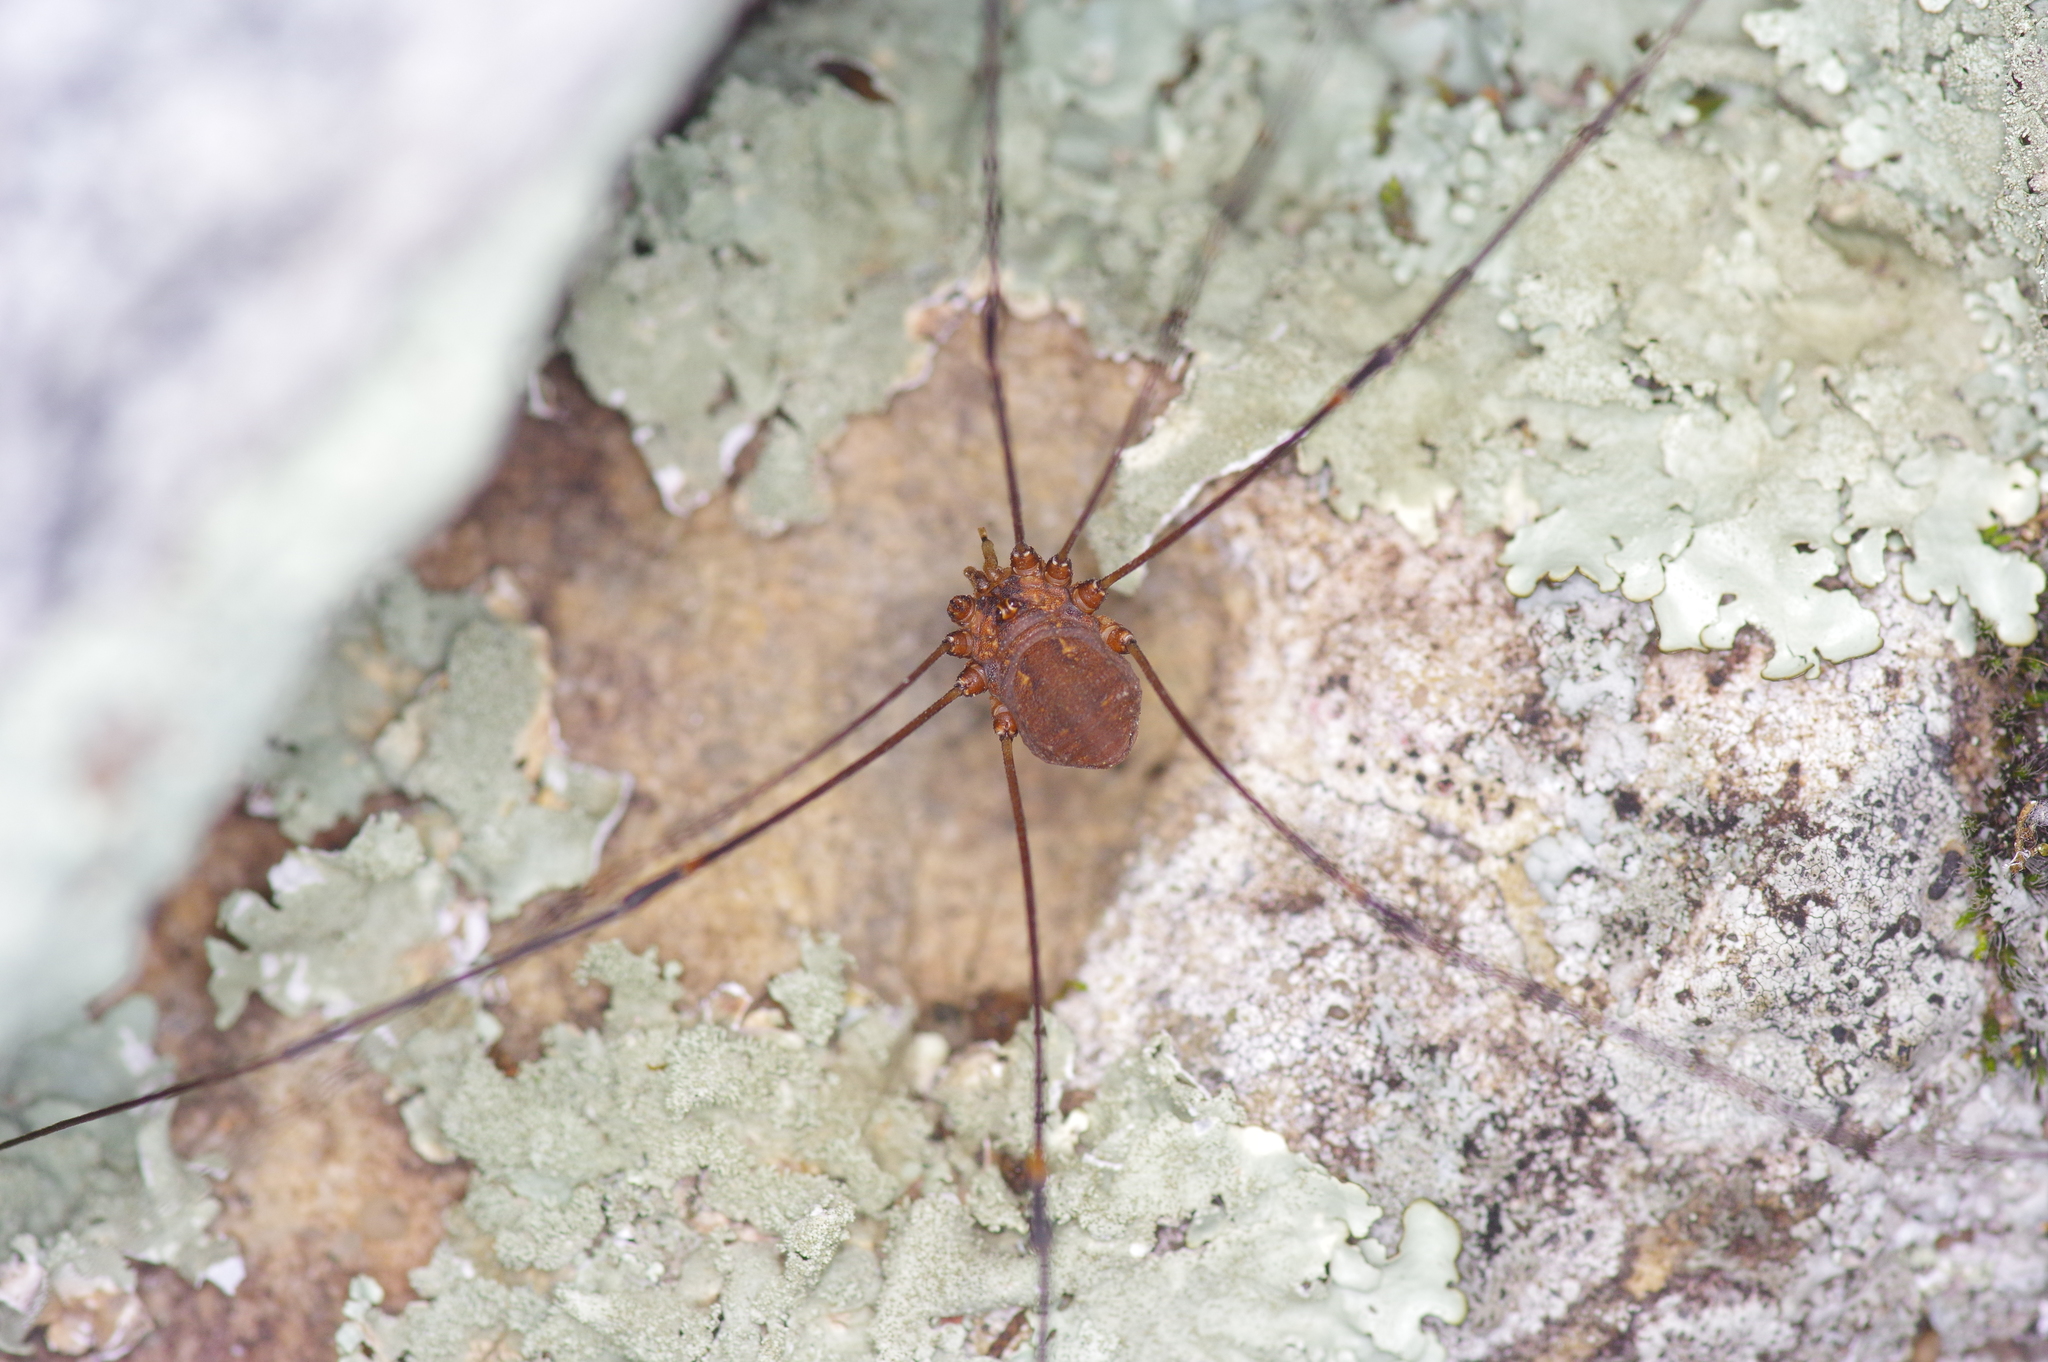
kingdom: Animalia
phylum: Arthropoda
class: Arachnida
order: Opiliones
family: Sclerosomatidae
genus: Leiobunum
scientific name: Leiobunum townsendi
